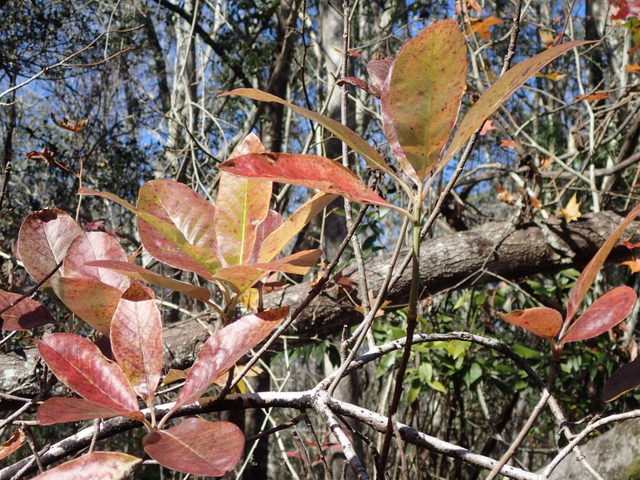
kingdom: Plantae
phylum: Tracheophyta
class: Magnoliopsida
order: Cornales
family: Nyssaceae
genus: Nyssa
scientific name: Nyssa ogeche
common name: Ogeechee tupelo
